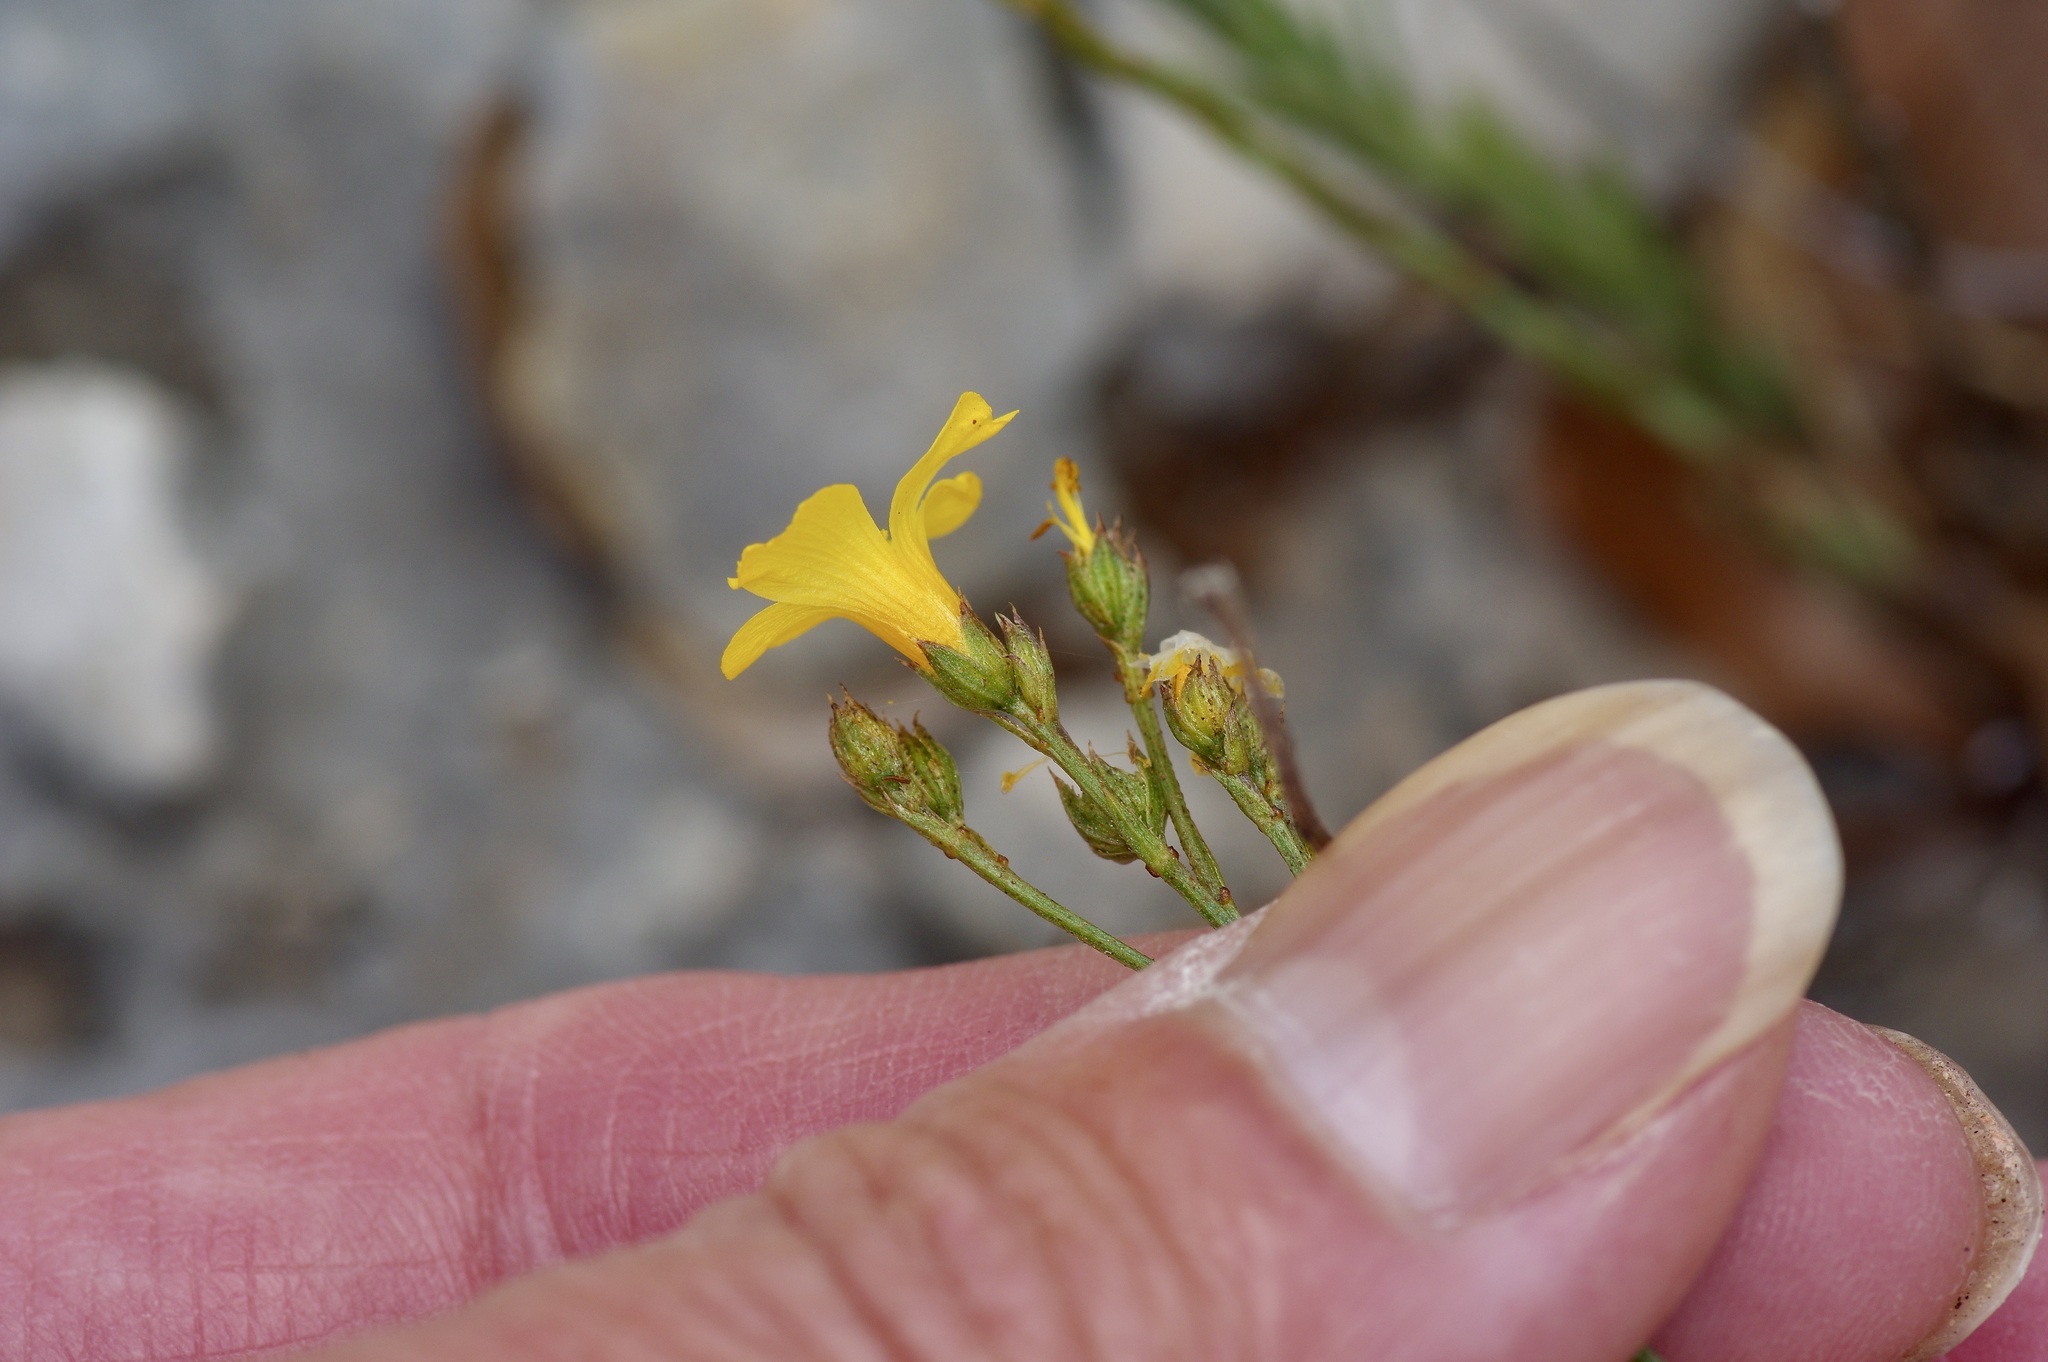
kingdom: Plantae
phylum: Tracheophyta
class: Magnoliopsida
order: Malpighiales
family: Linaceae
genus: Linum
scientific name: Linum rupestre
